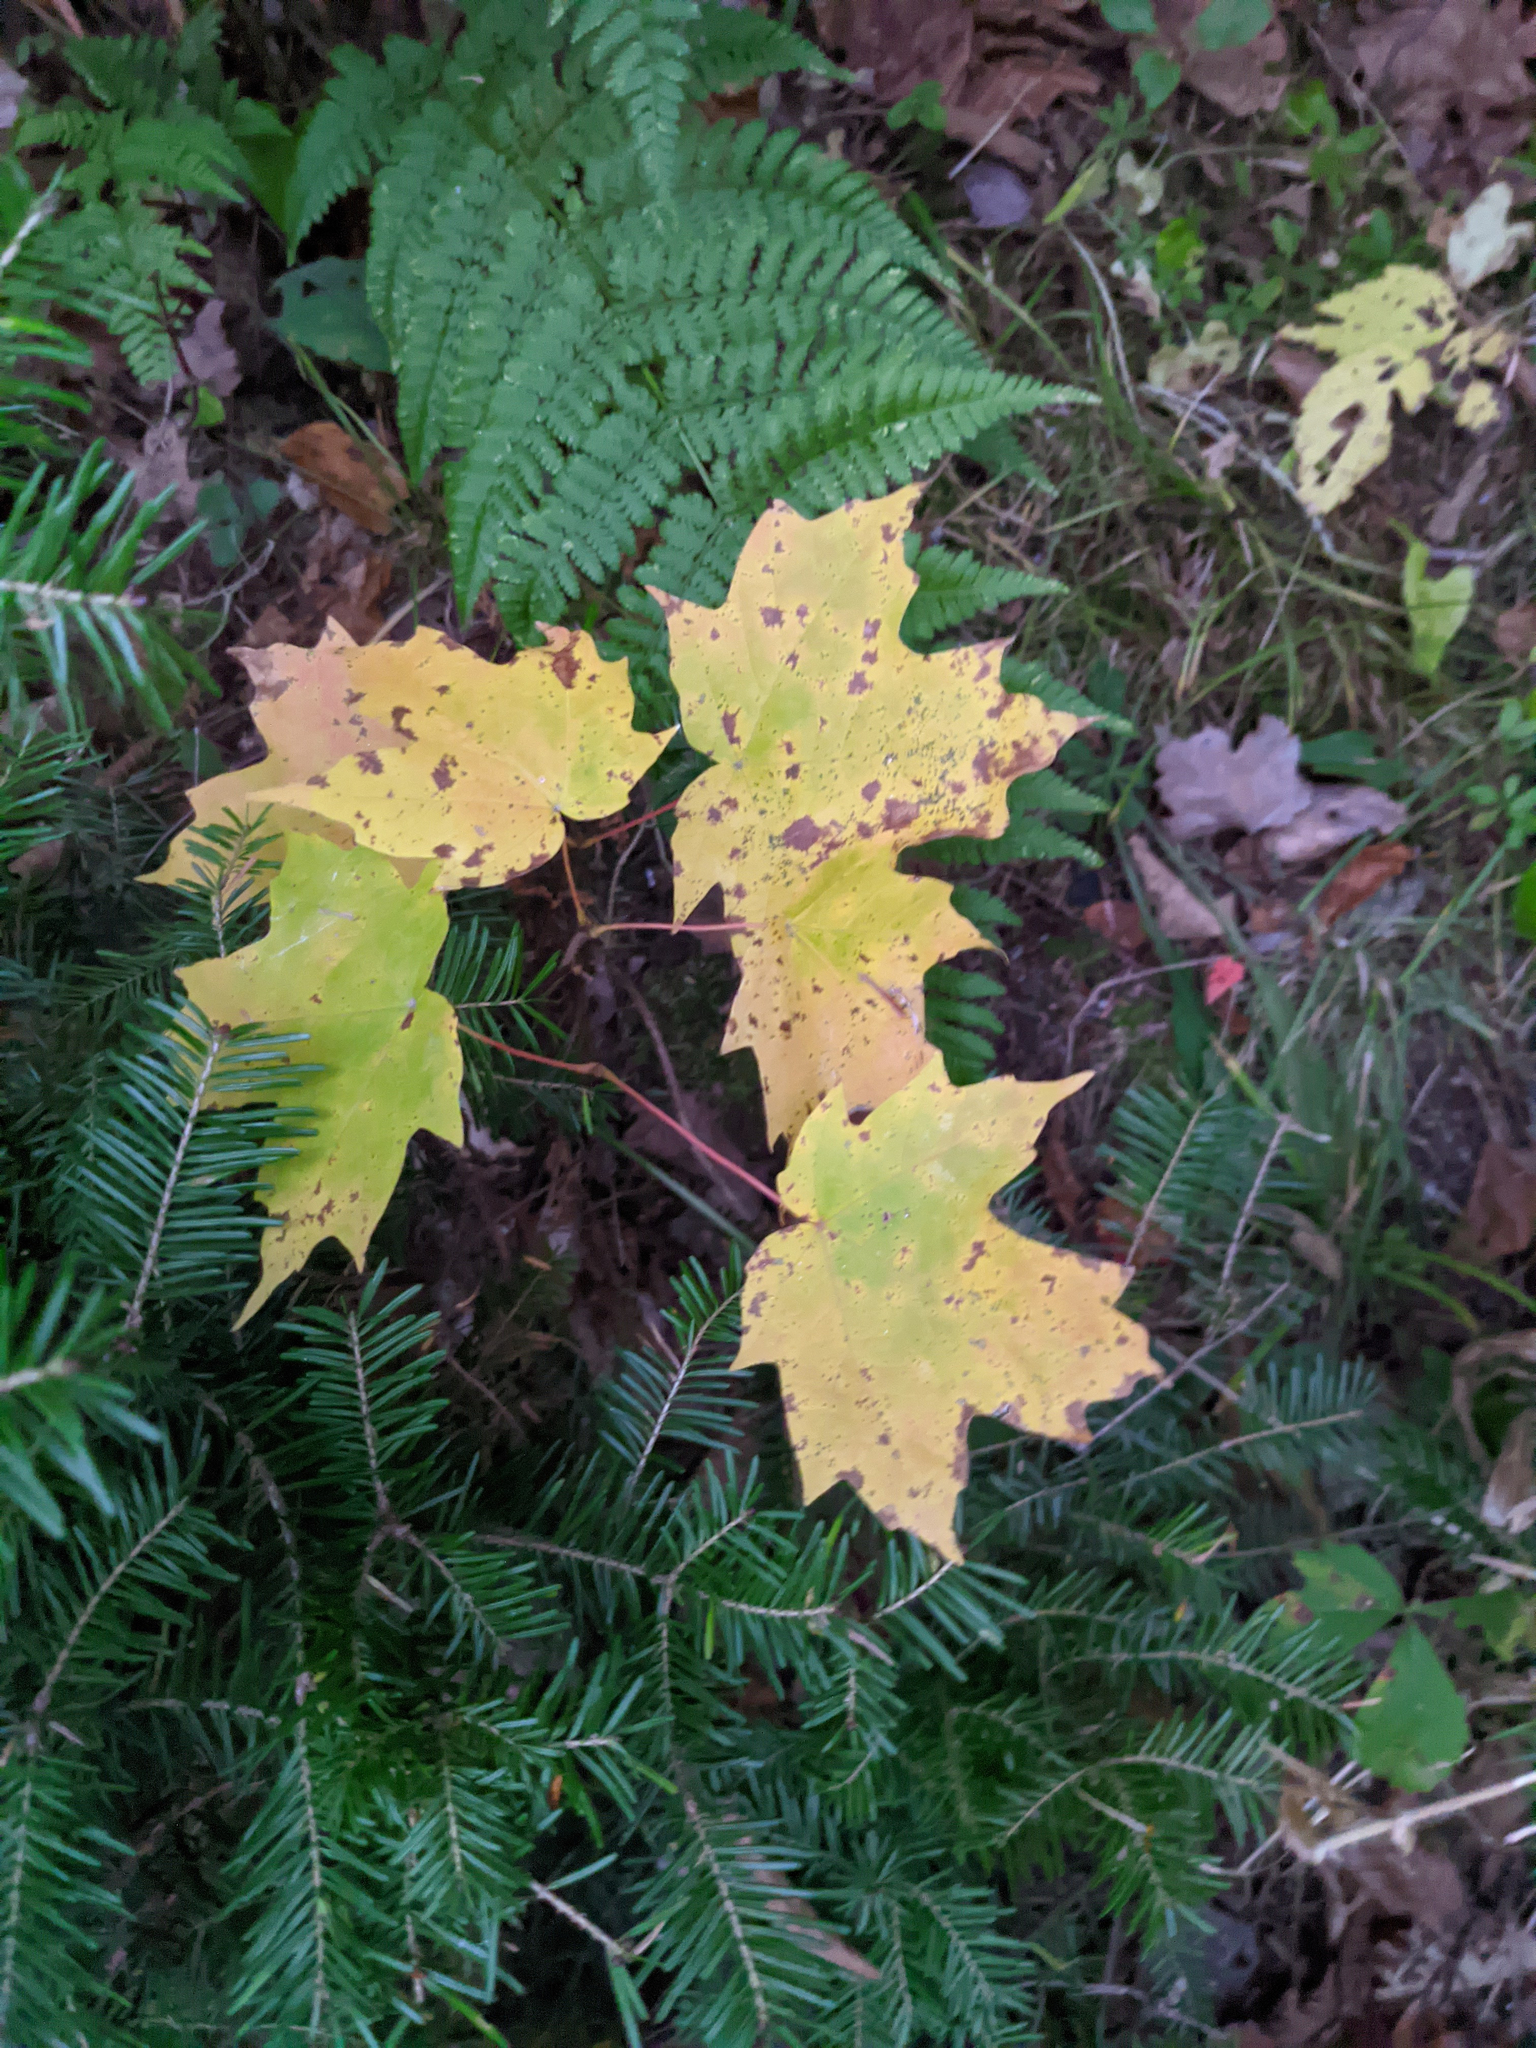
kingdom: Plantae
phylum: Tracheophyta
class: Magnoliopsida
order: Sapindales
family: Sapindaceae
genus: Acer
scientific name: Acer saccharum
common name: Sugar maple
